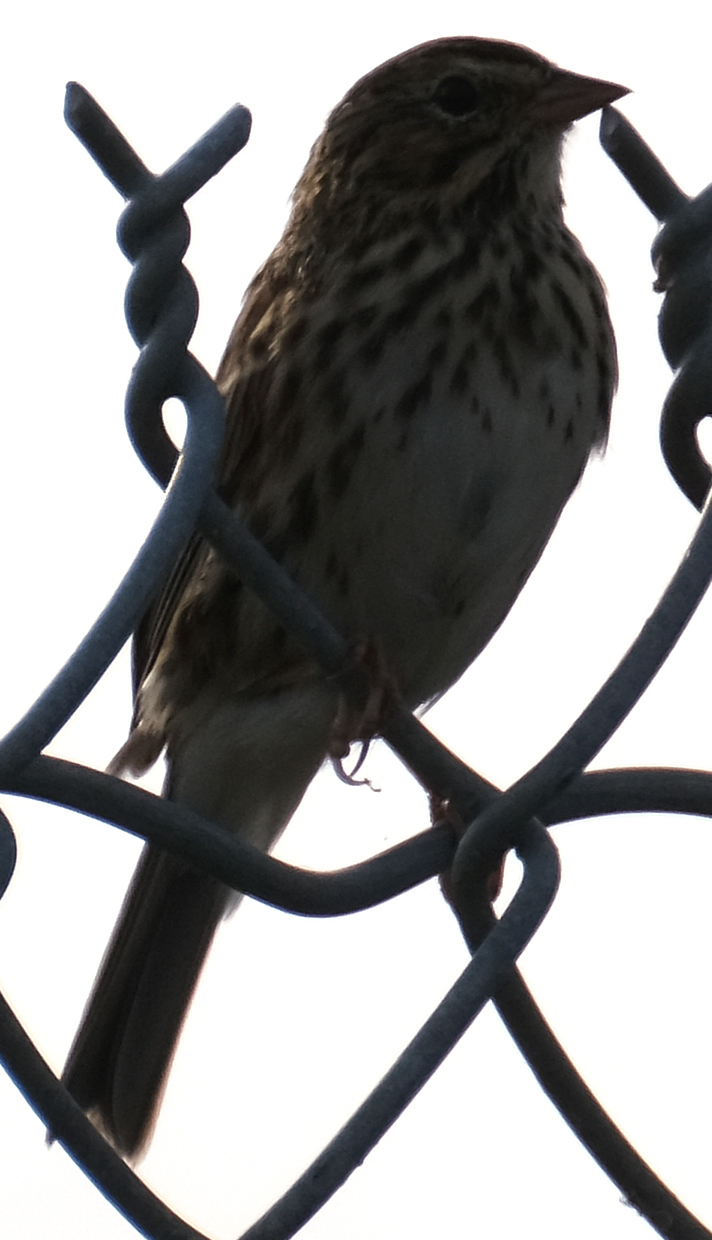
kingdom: Animalia
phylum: Chordata
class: Aves
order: Passeriformes
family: Passerellidae
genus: Passerculus
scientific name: Passerculus sandwichensis
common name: Savannah sparrow
